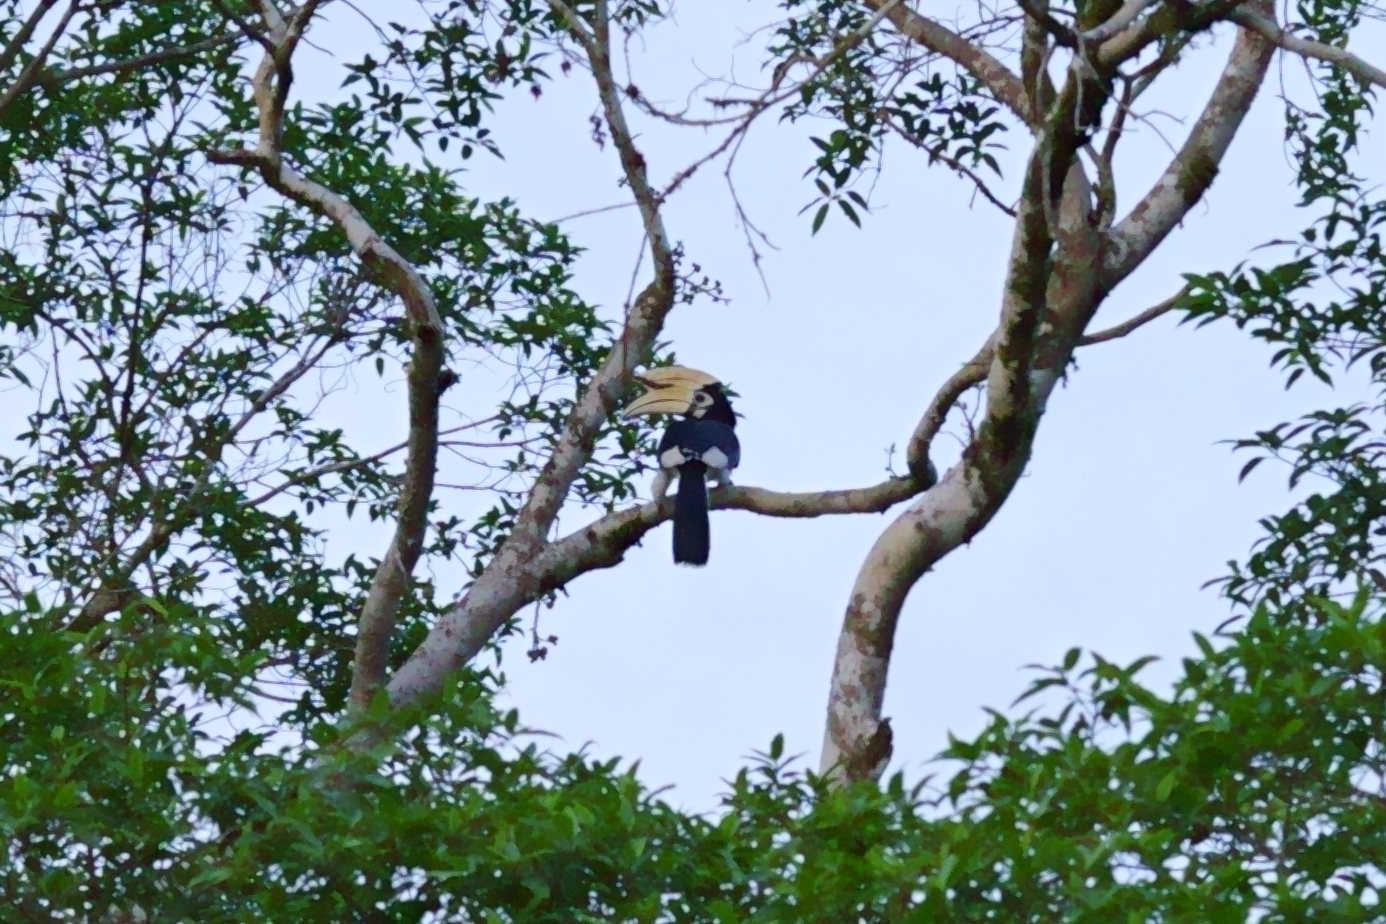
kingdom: Animalia
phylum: Chordata
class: Aves
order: Bucerotiformes
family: Bucerotidae
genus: Anthracoceros
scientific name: Anthracoceros albirostris
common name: Oriental pied-hornbill
